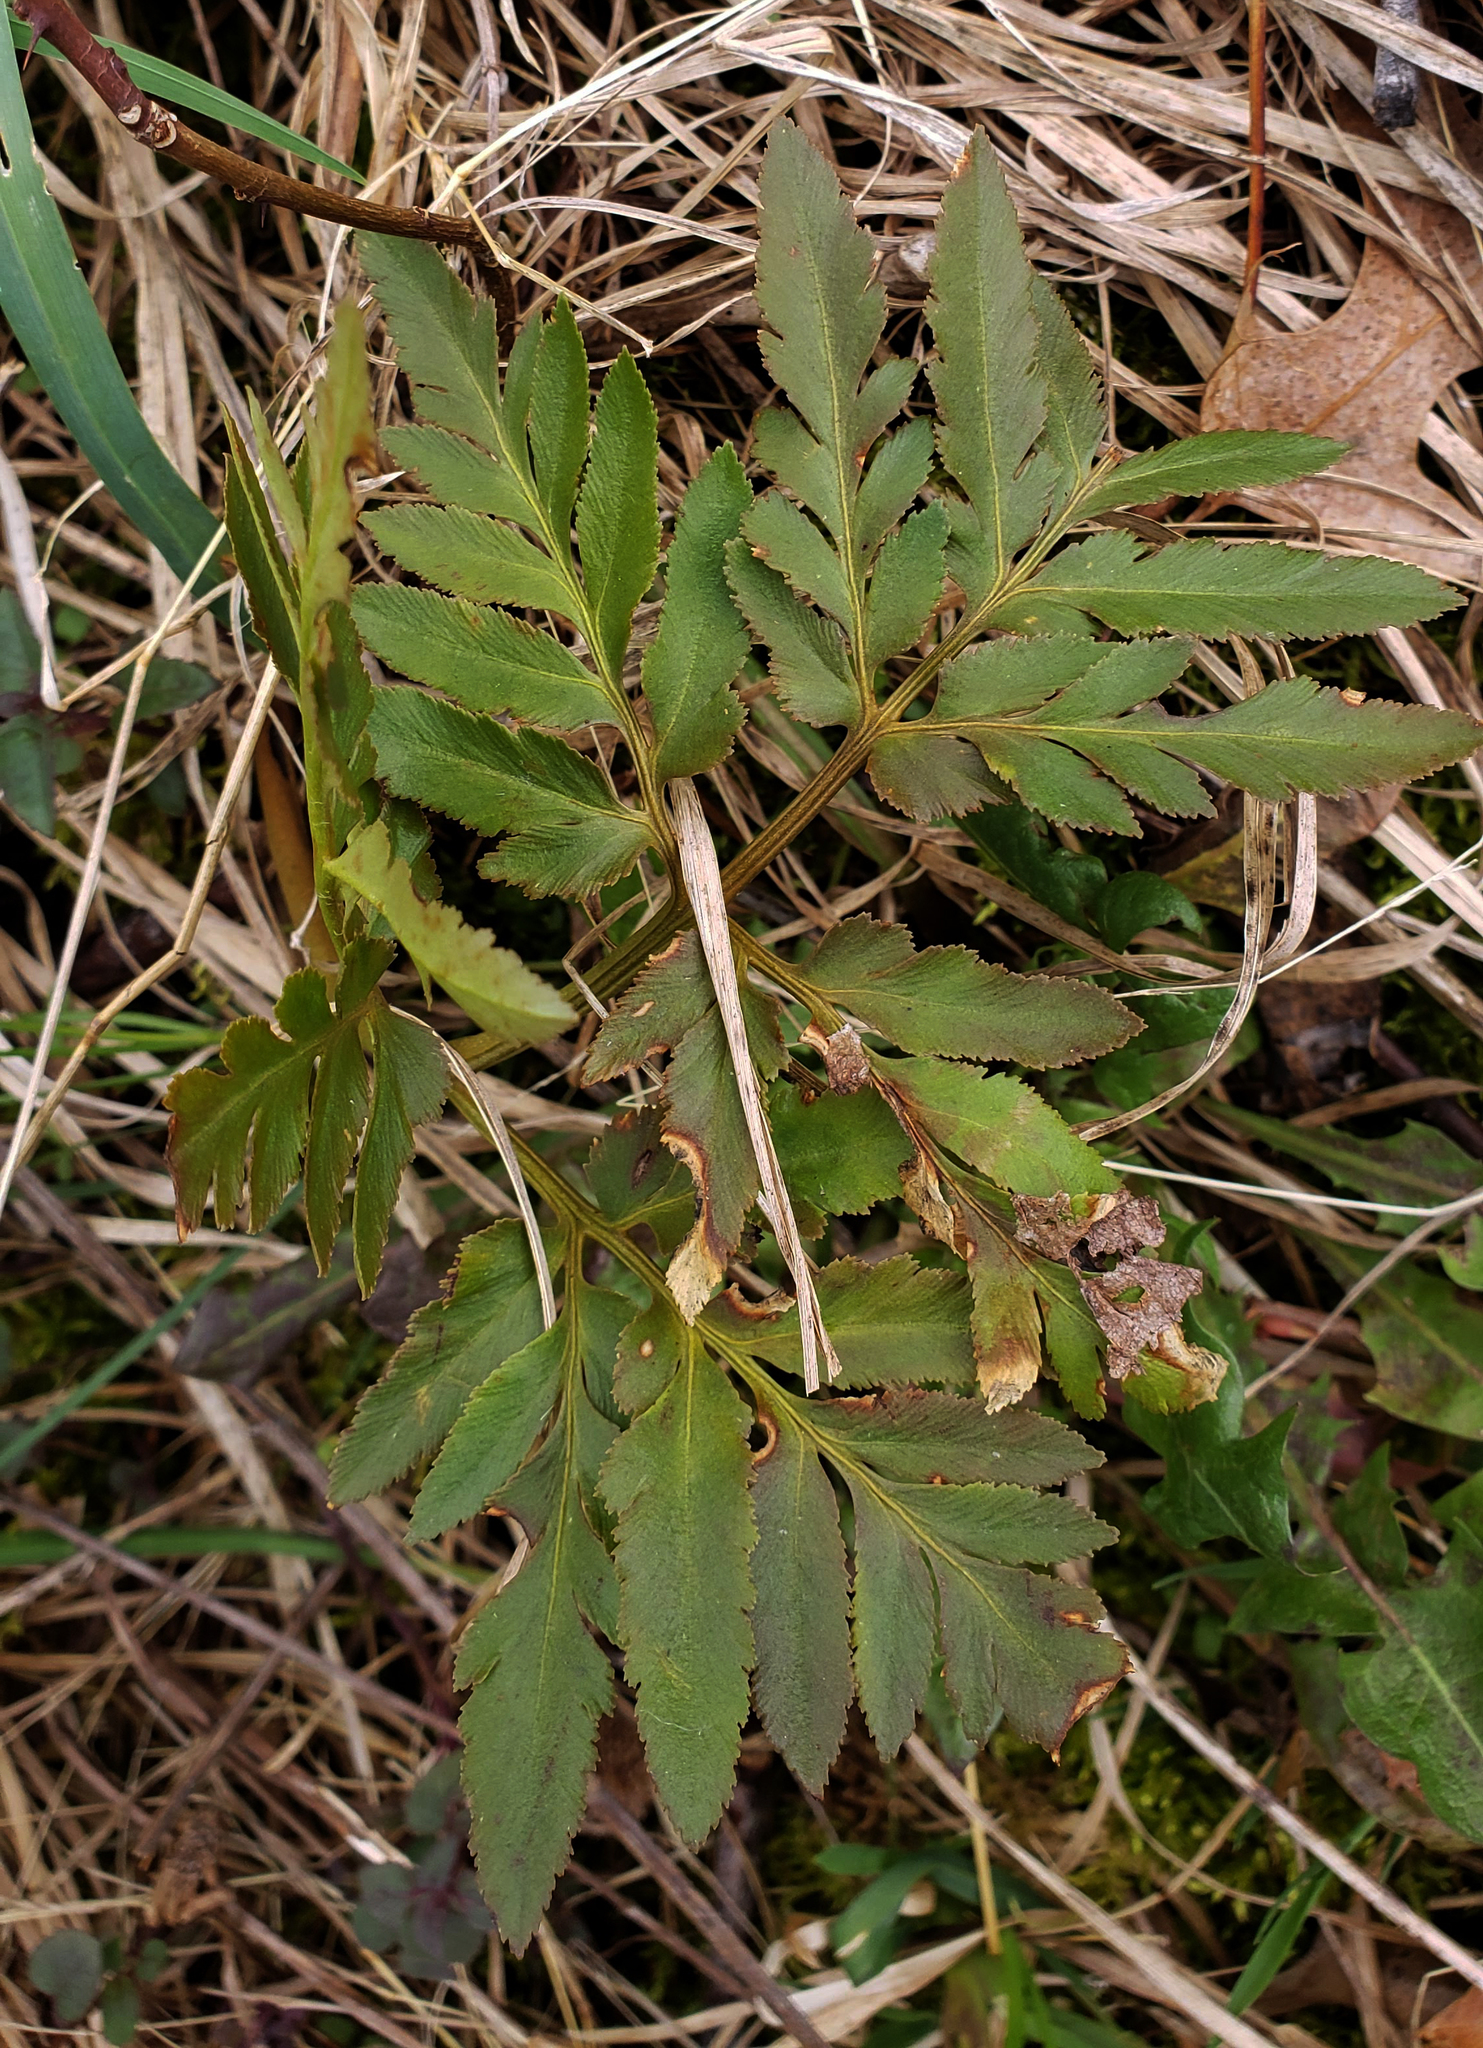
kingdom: Plantae
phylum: Tracheophyta
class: Polypodiopsida
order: Ophioglossales
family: Ophioglossaceae
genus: Sceptridium
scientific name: Sceptridium dissectum
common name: Cut-leaved grapefern
